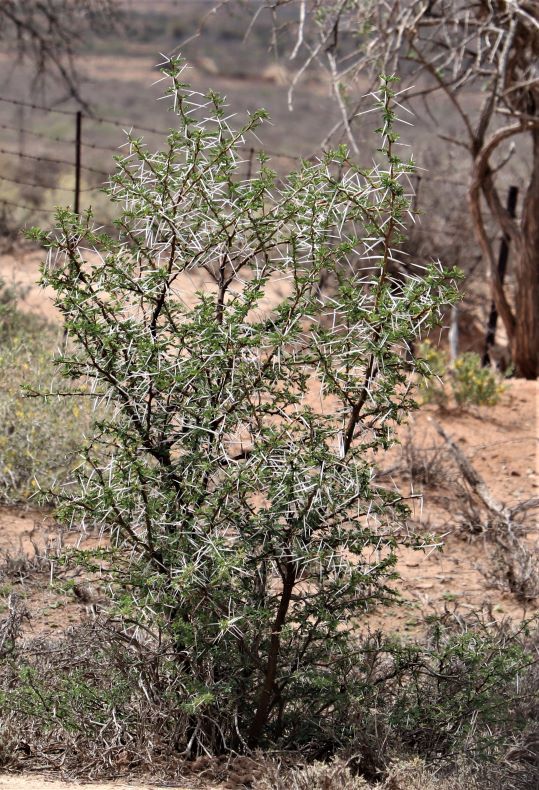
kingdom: Plantae
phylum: Tracheophyta
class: Magnoliopsida
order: Fabales
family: Fabaceae
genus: Vachellia
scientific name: Vachellia karroo
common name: Sweet thorn
